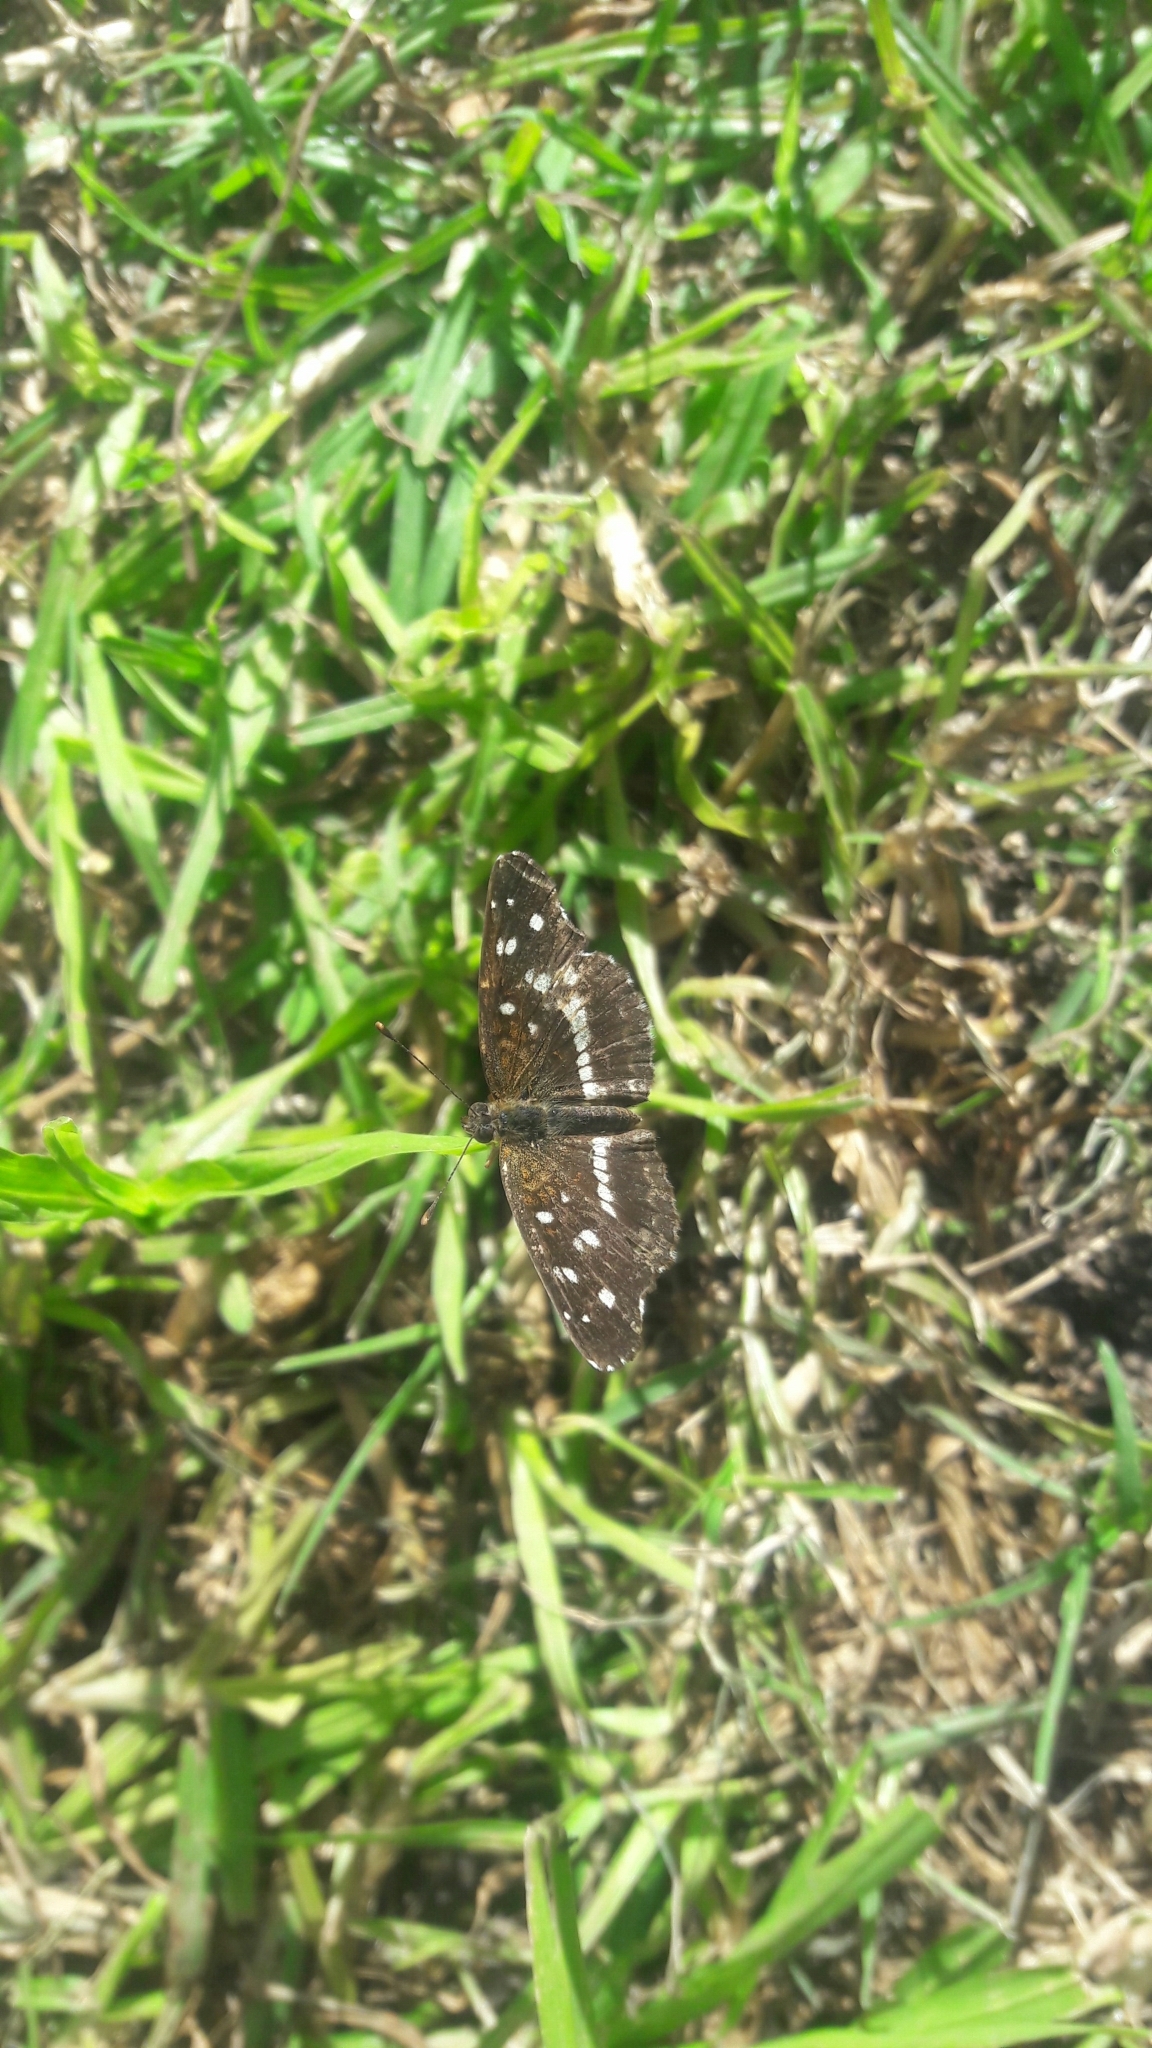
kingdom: Animalia
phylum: Arthropoda
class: Insecta
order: Lepidoptera
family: Nymphalidae
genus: Ortilia
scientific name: Ortilia ithra
